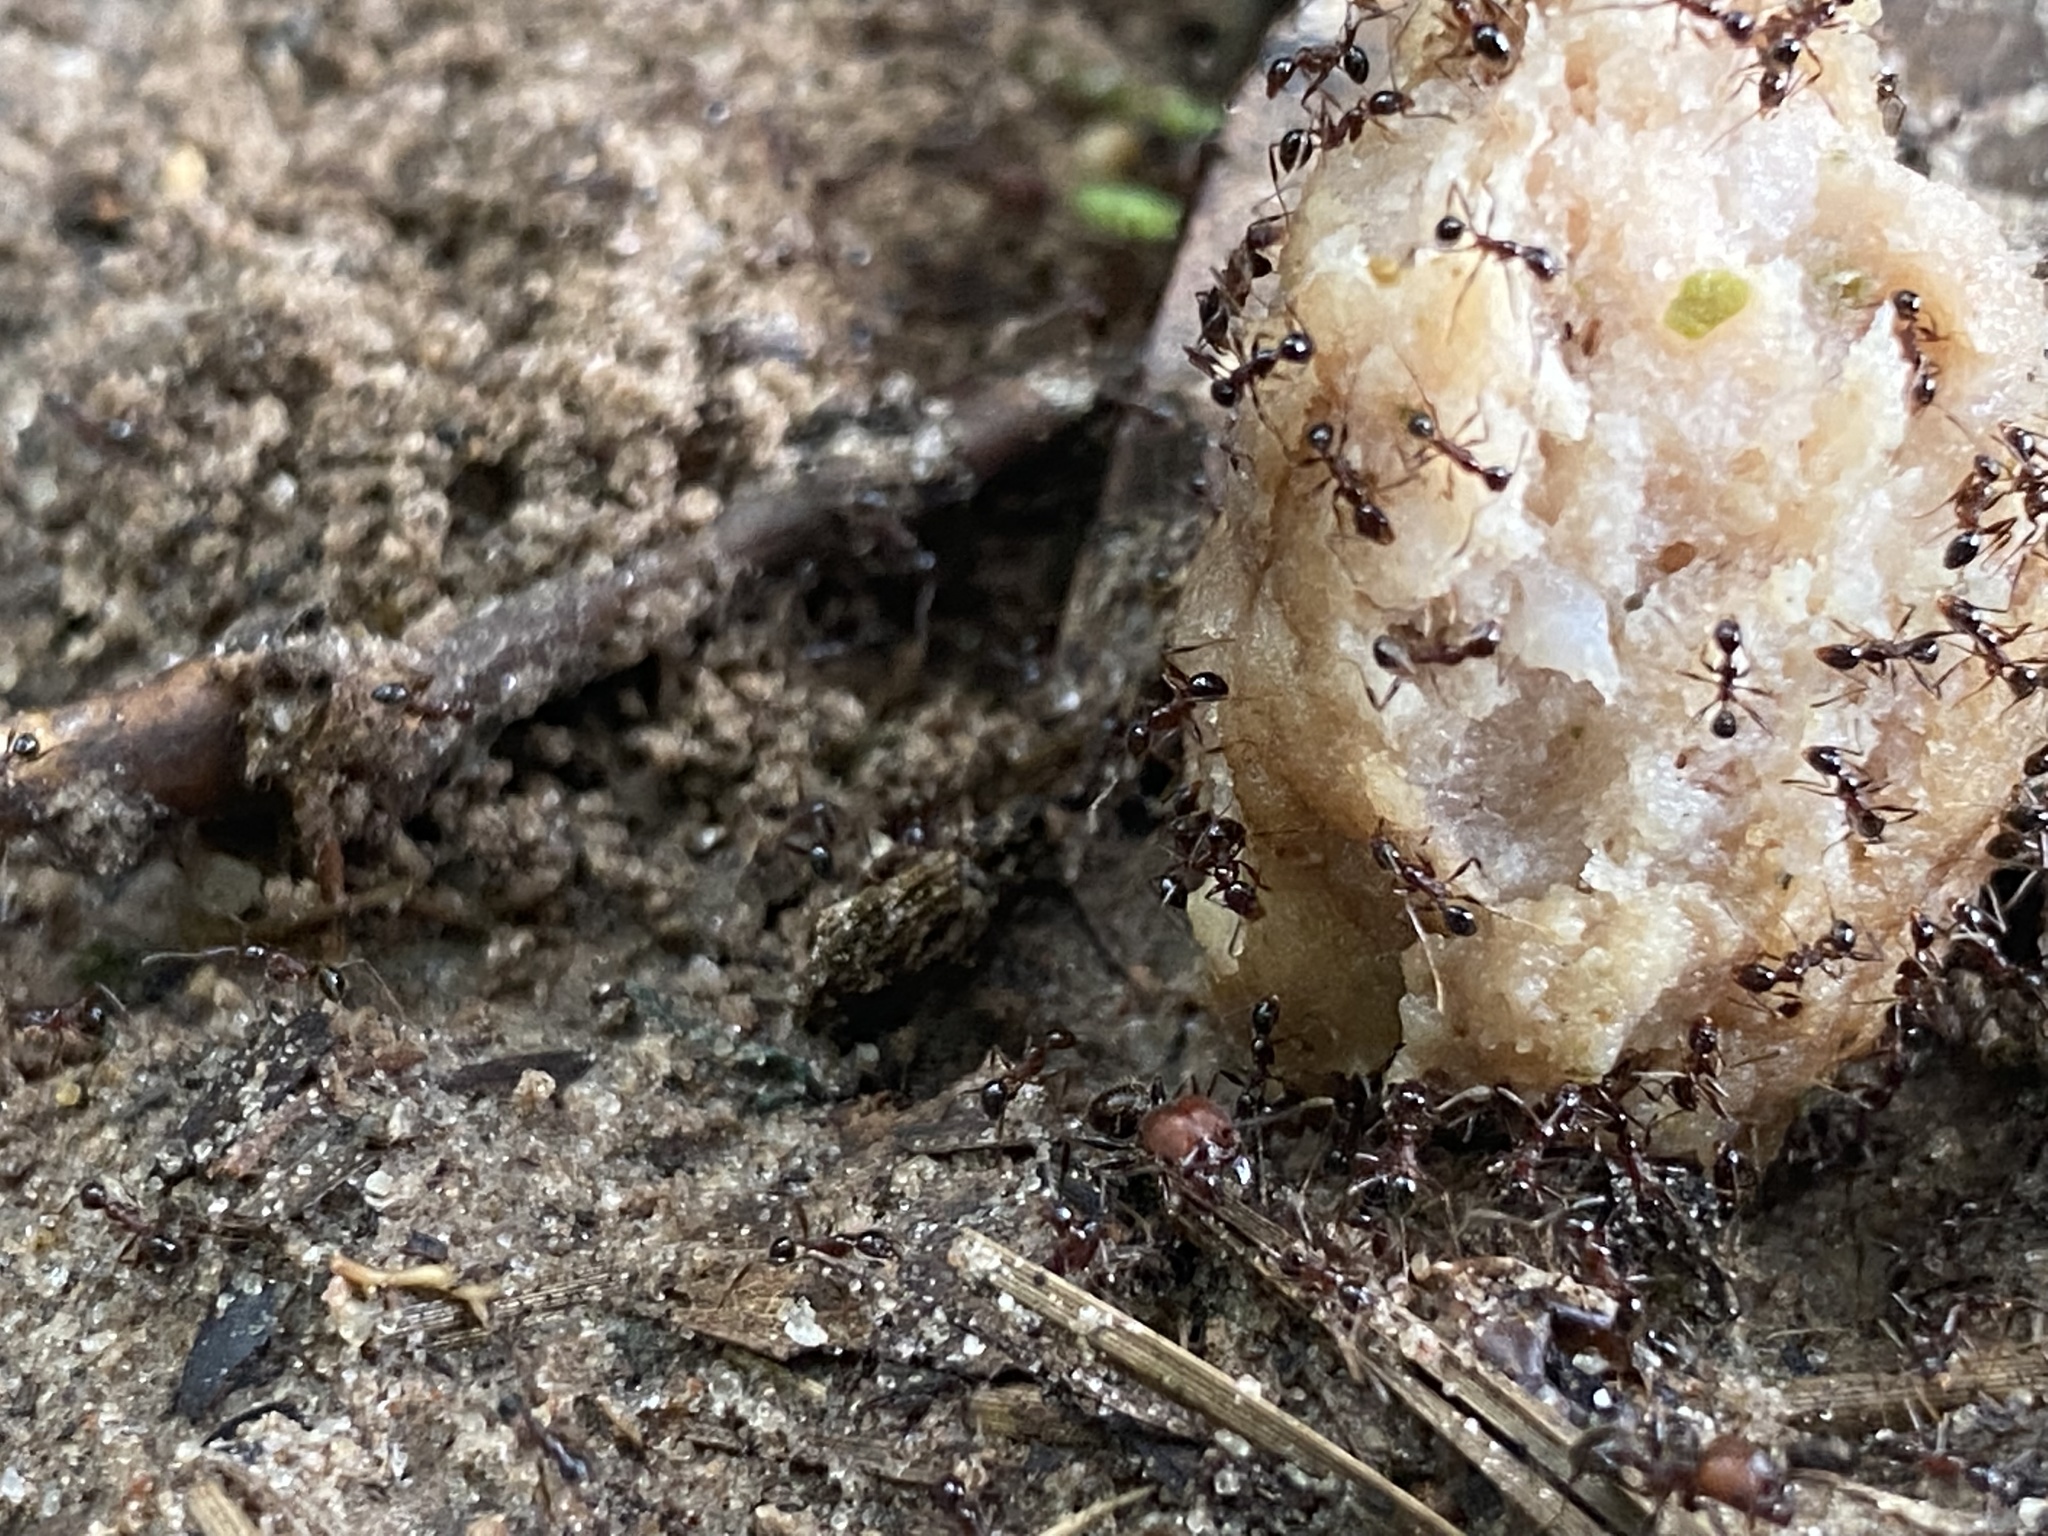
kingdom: Animalia
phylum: Arthropoda
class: Insecta
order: Hymenoptera
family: Formicidae
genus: Pheidole
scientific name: Pheidole obscurithorax
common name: Obscure big-headed ant
